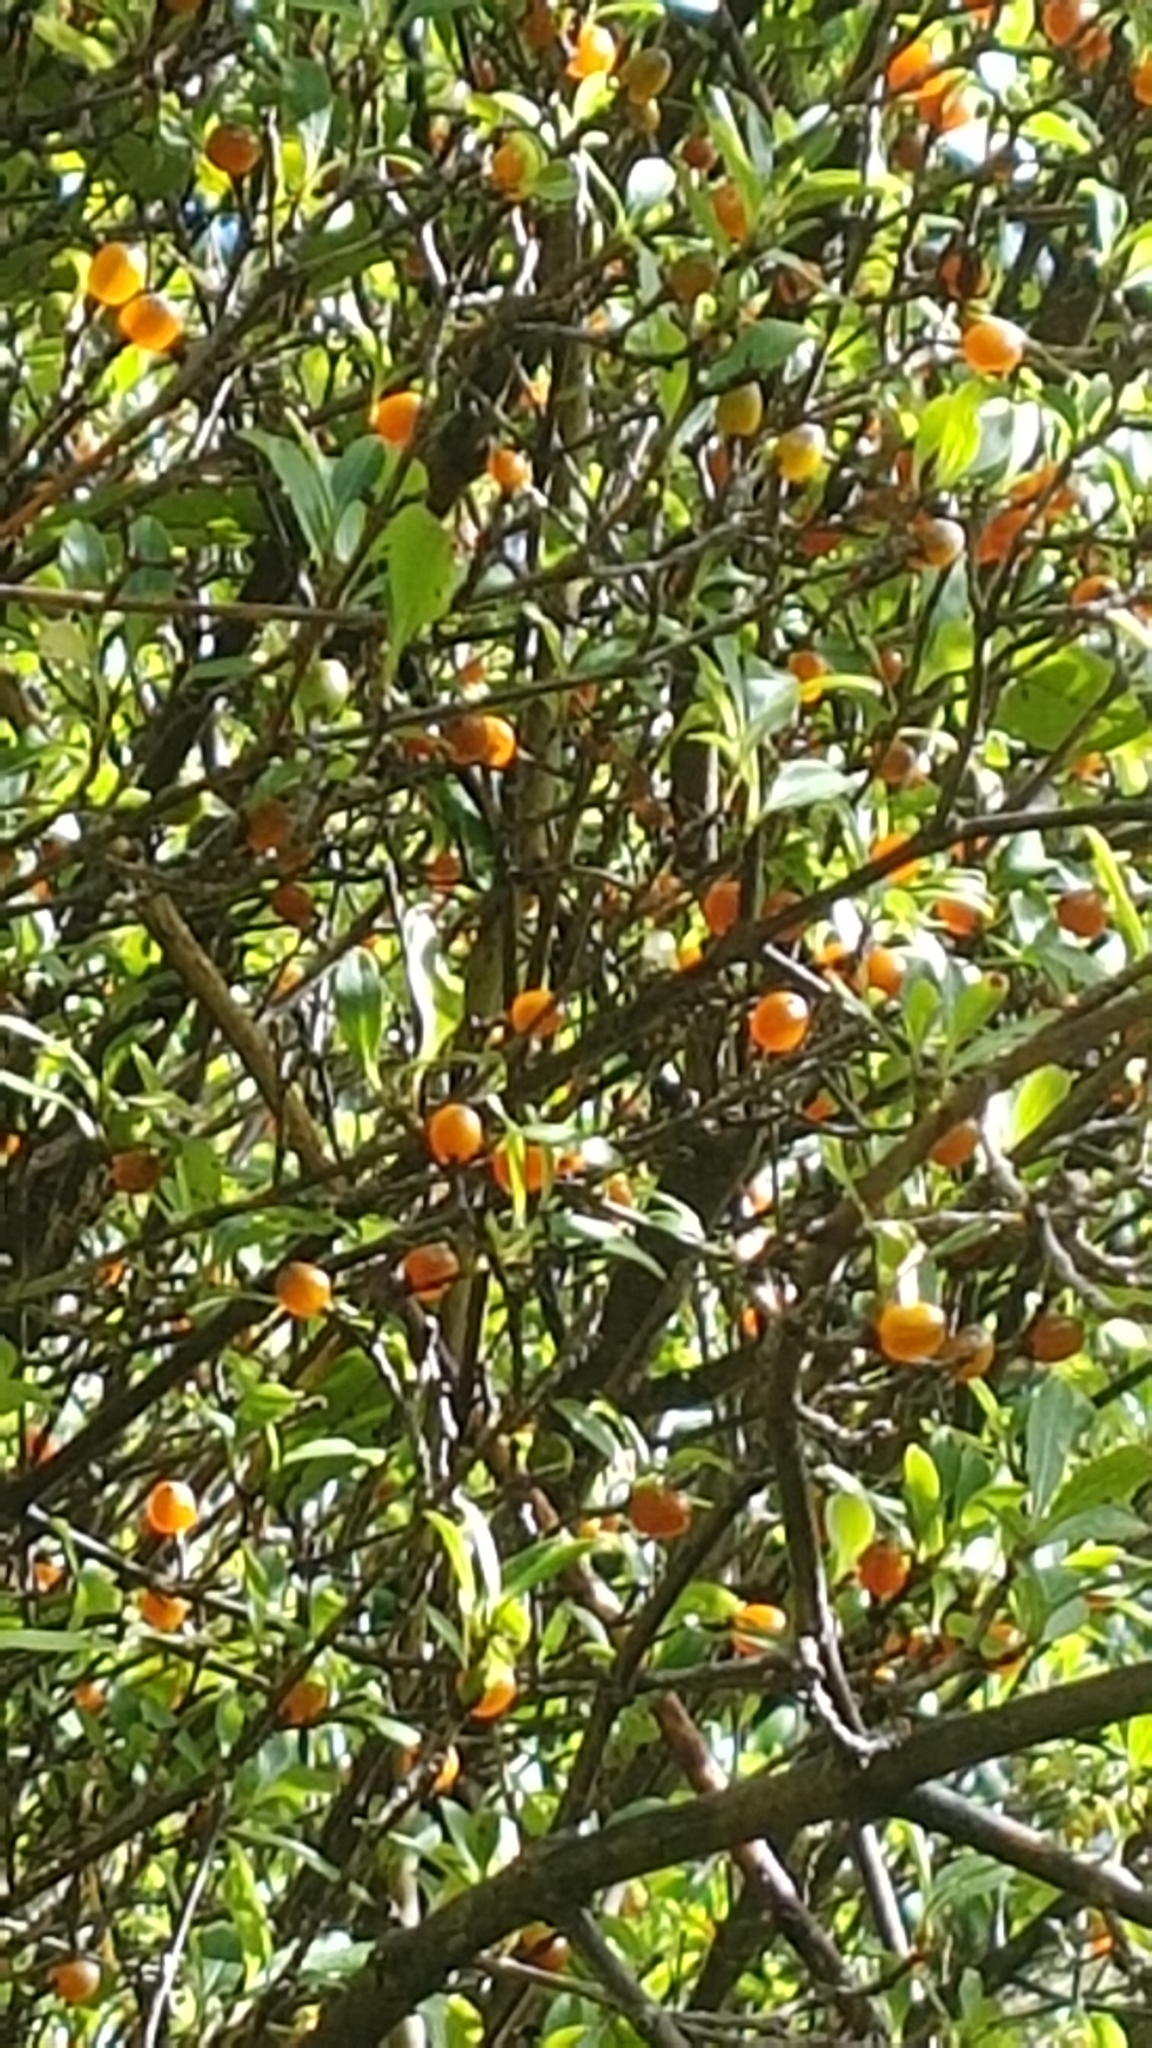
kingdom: Plantae
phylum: Tracheophyta
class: Magnoliopsida
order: Gentianales
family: Rubiaceae
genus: Coprosma
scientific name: Coprosma foetidissima
